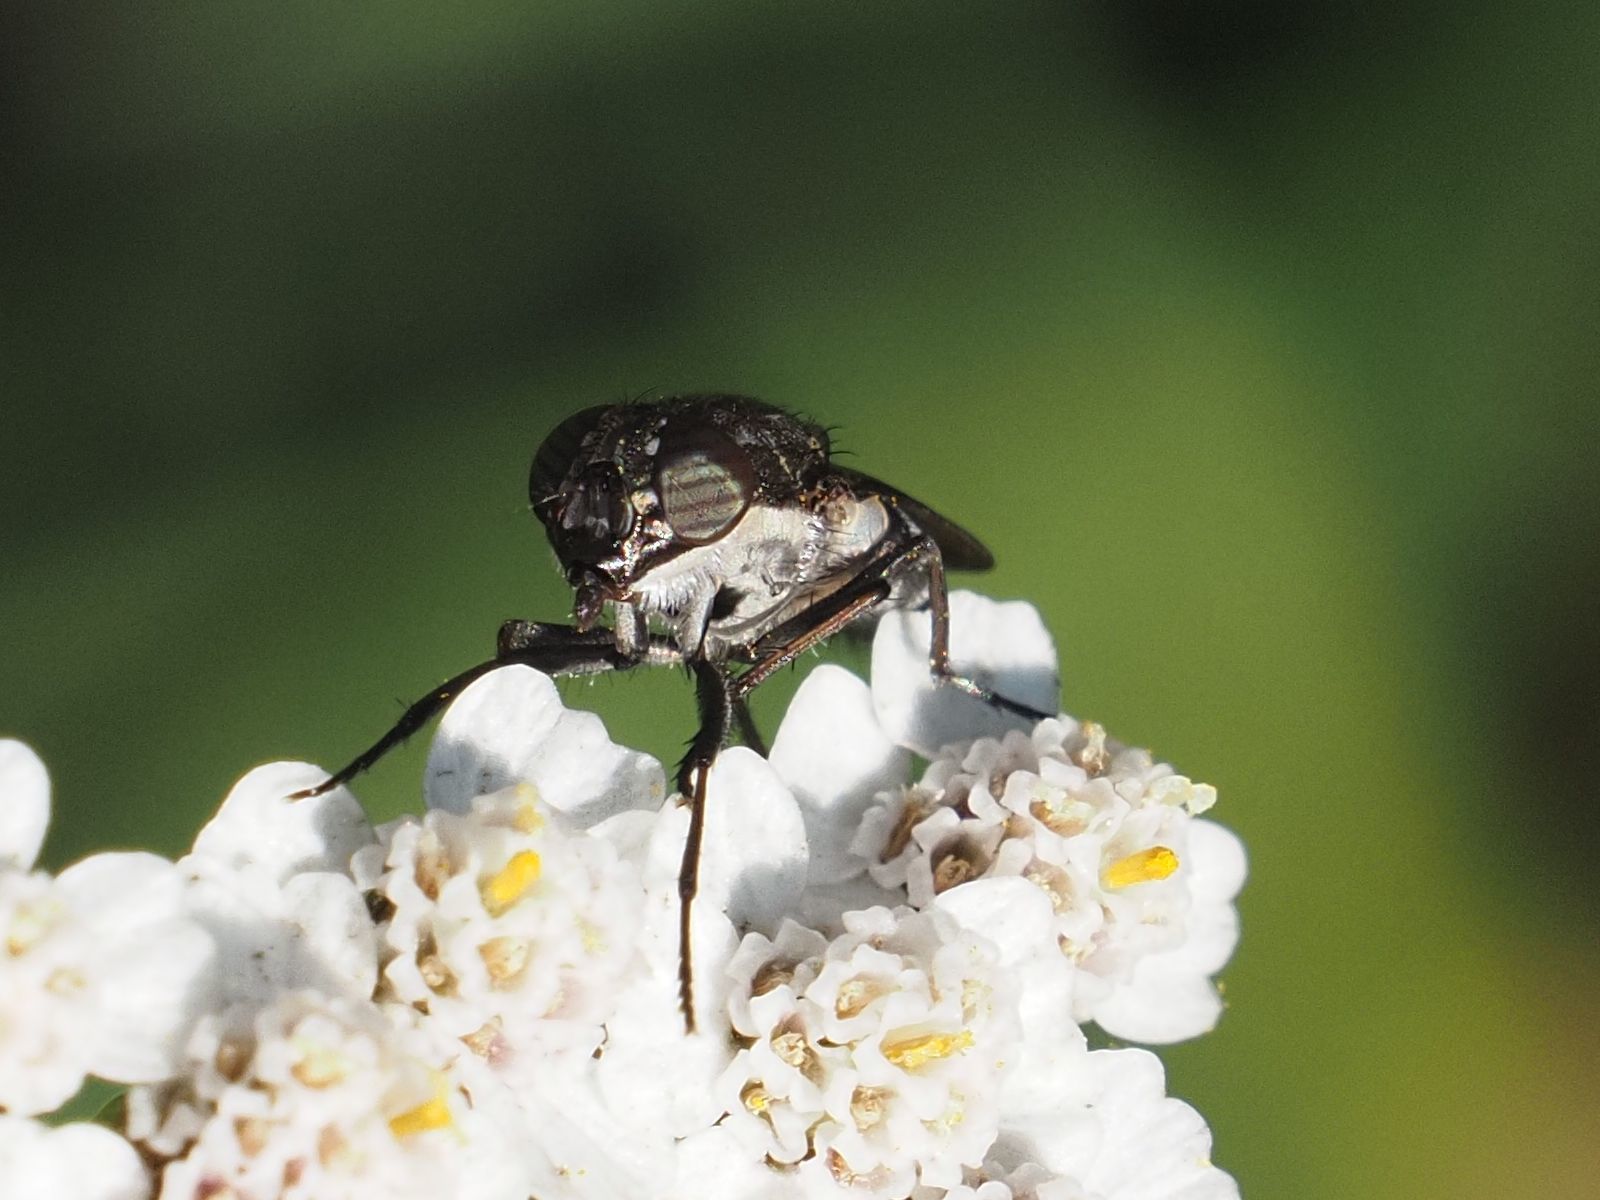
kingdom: Animalia
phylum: Arthropoda
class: Insecta
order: Diptera
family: Calliphoridae
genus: Stomorhina
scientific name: Stomorhina lunata
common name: Locust blowfly
